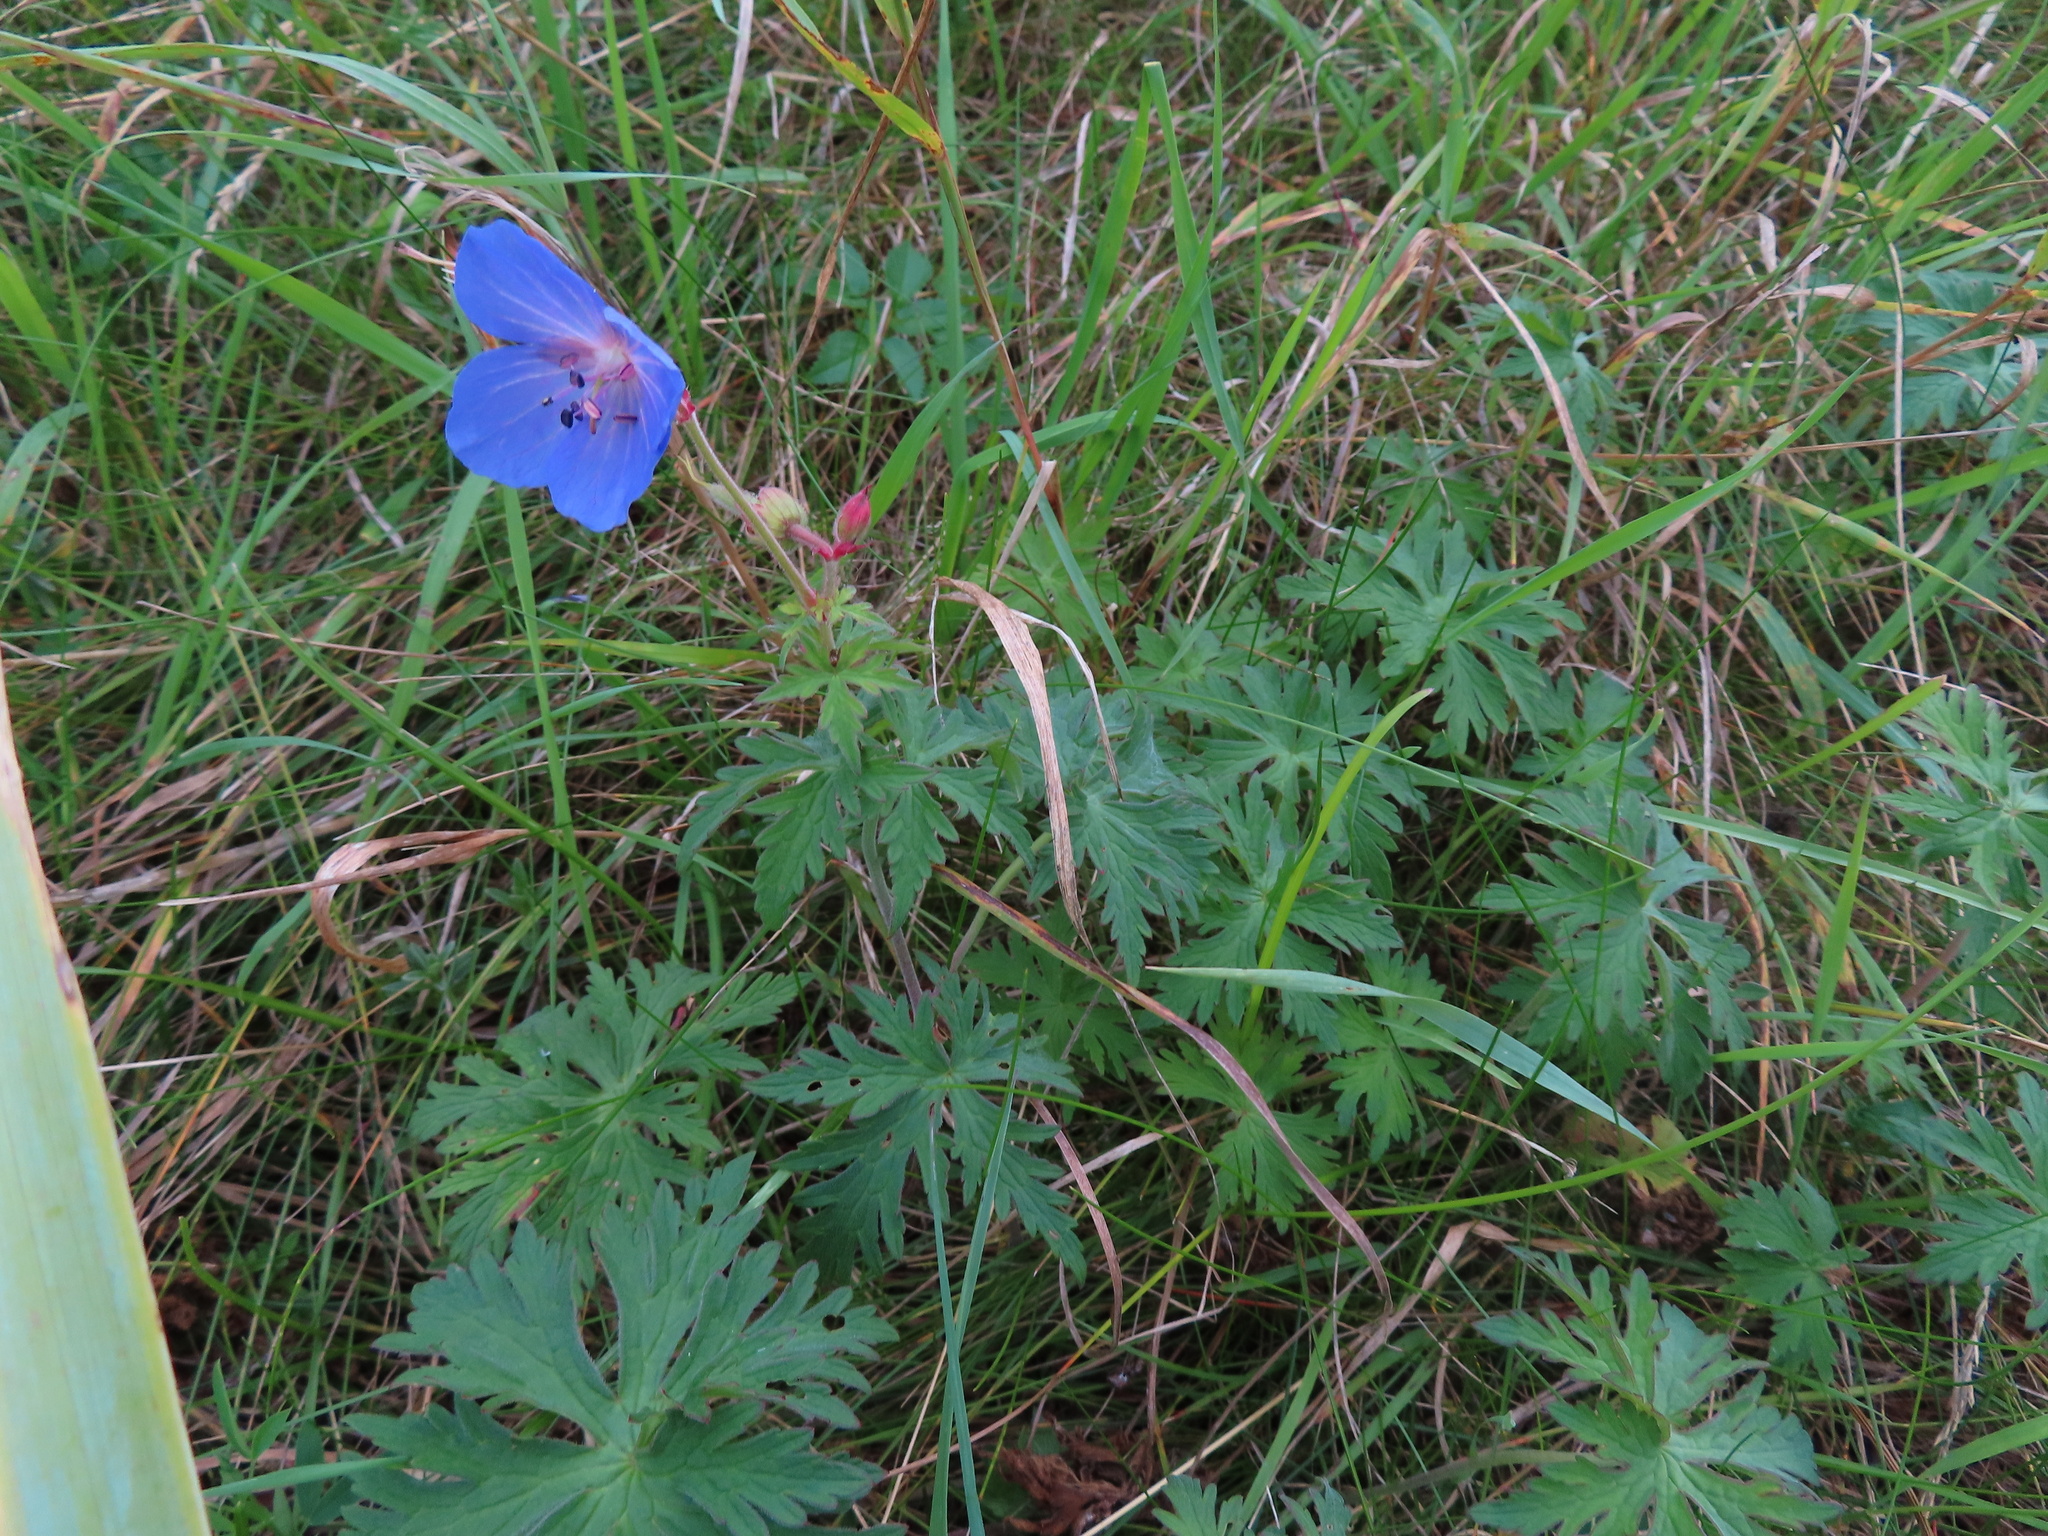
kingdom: Plantae
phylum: Tracheophyta
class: Magnoliopsida
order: Geraniales
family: Geraniaceae
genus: Geranium
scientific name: Geranium pratense
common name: Meadow crane's-bill
